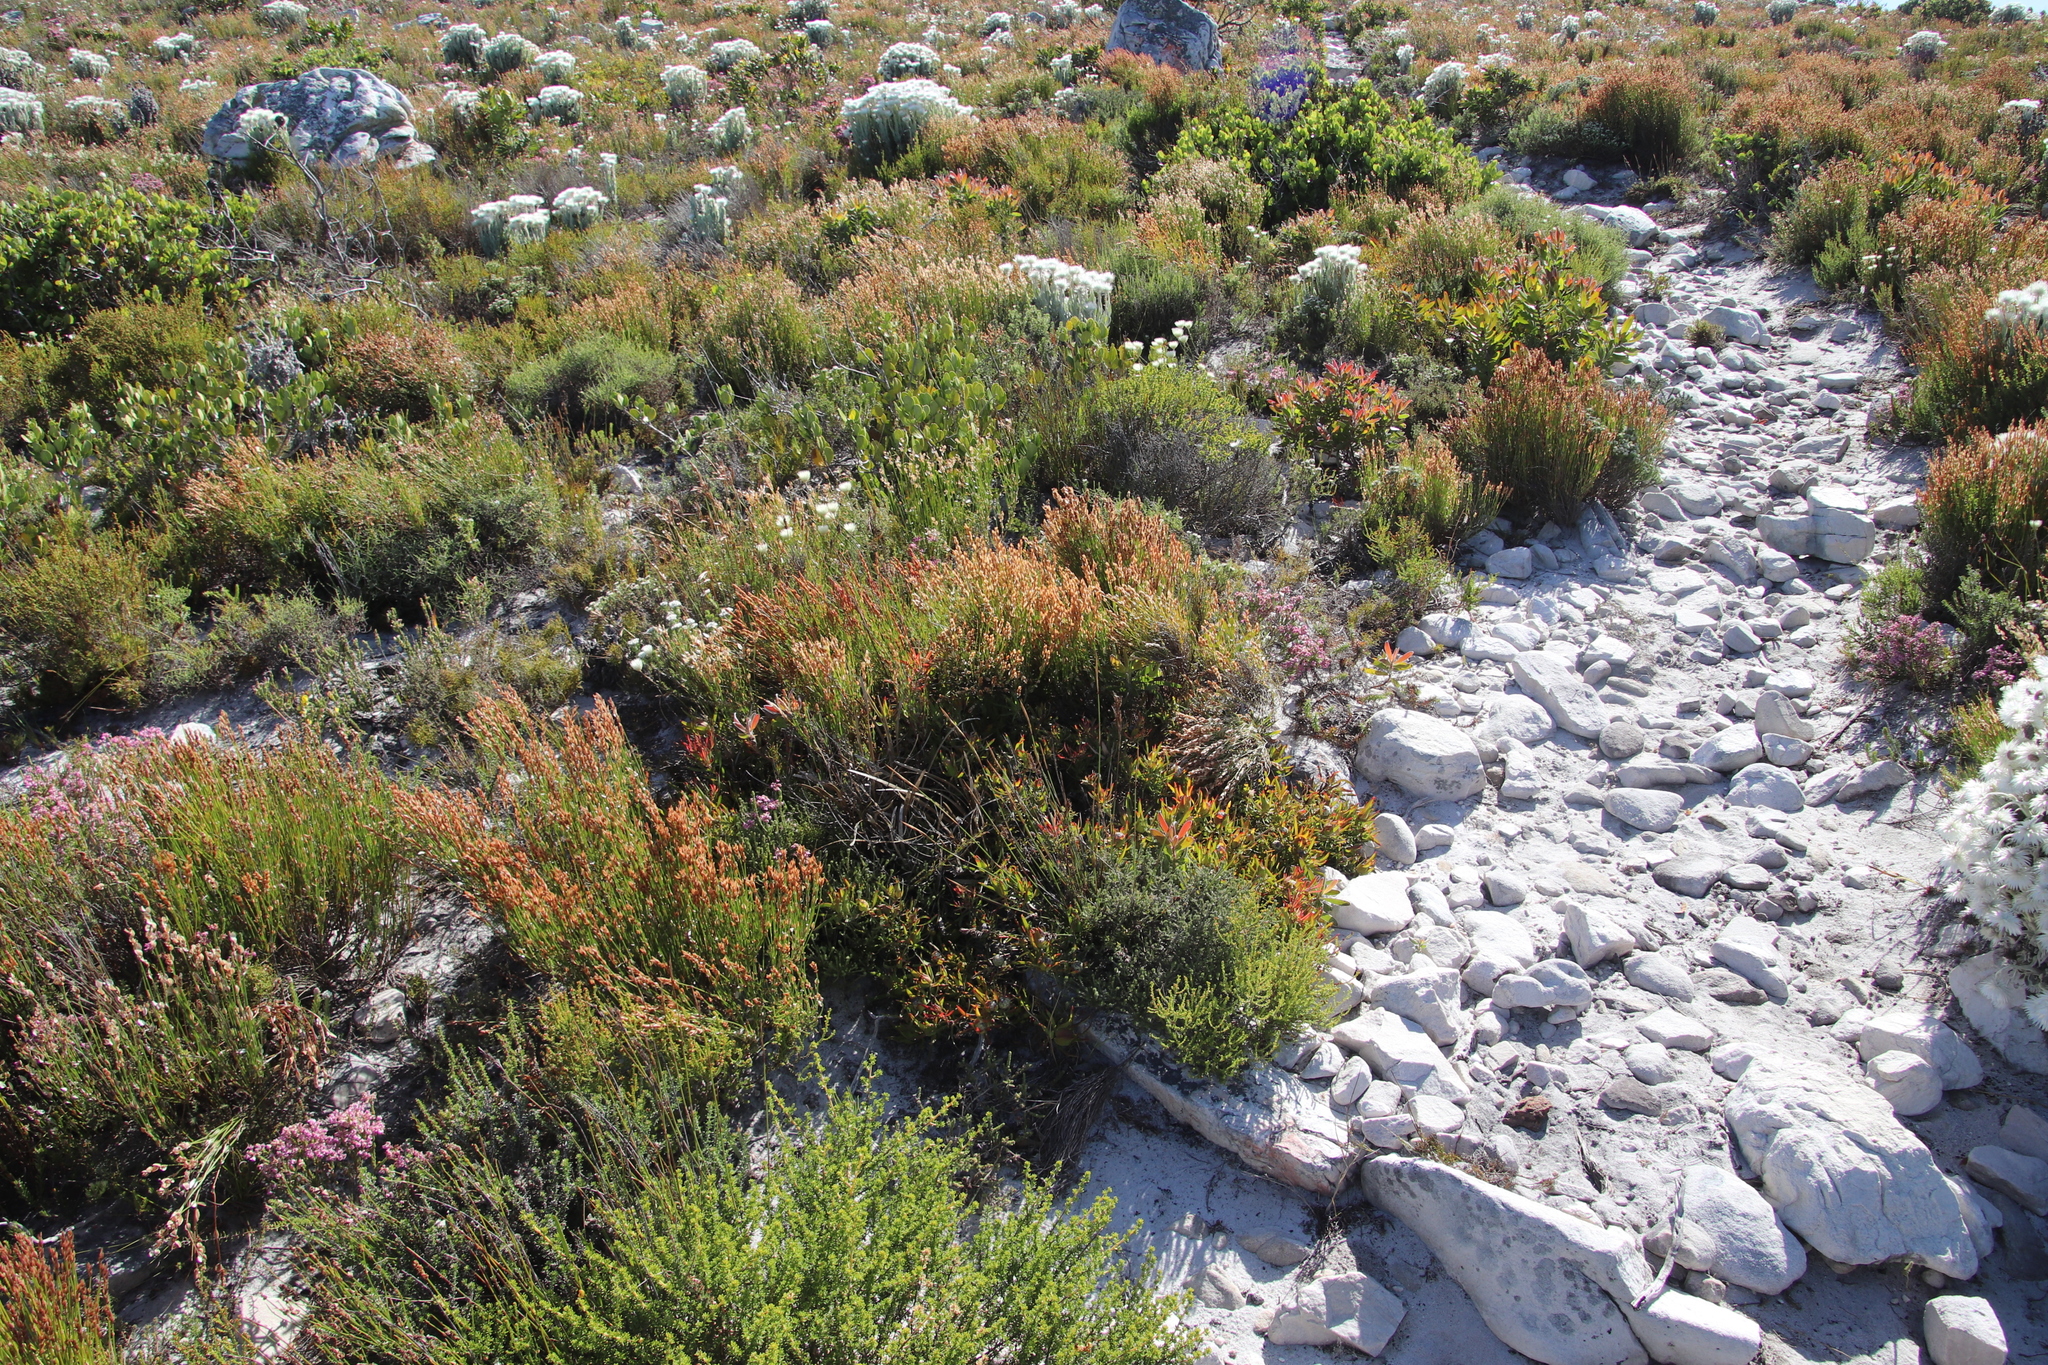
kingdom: Plantae
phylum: Tracheophyta
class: Magnoliopsida
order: Proteales
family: Proteaceae
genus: Leucadendron
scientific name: Leucadendron salignum
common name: Common sunshine conebush
